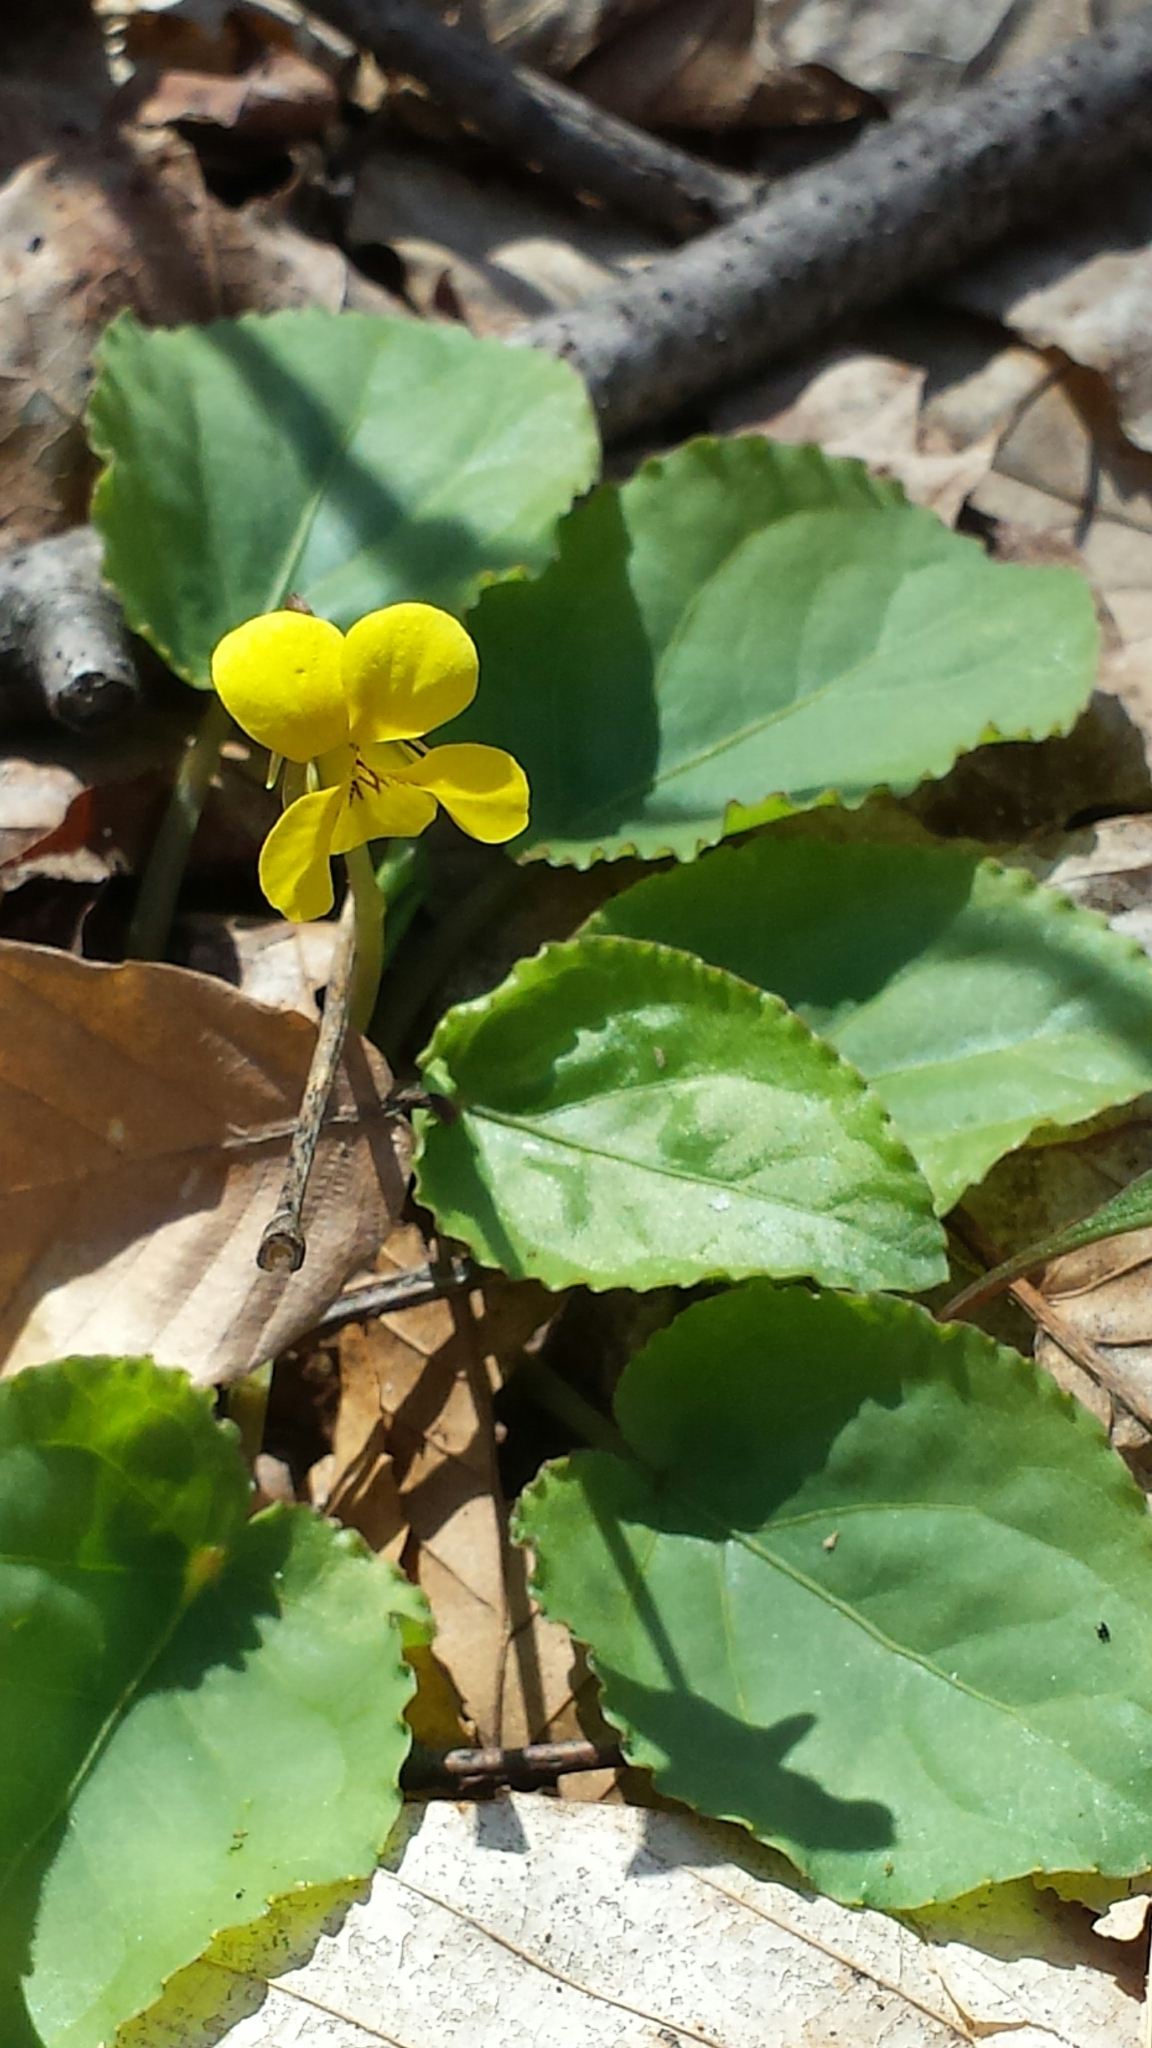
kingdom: Plantae
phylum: Tracheophyta
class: Magnoliopsida
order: Malpighiales
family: Violaceae
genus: Viola
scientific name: Viola rotundifolia
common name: Early yellow violet
